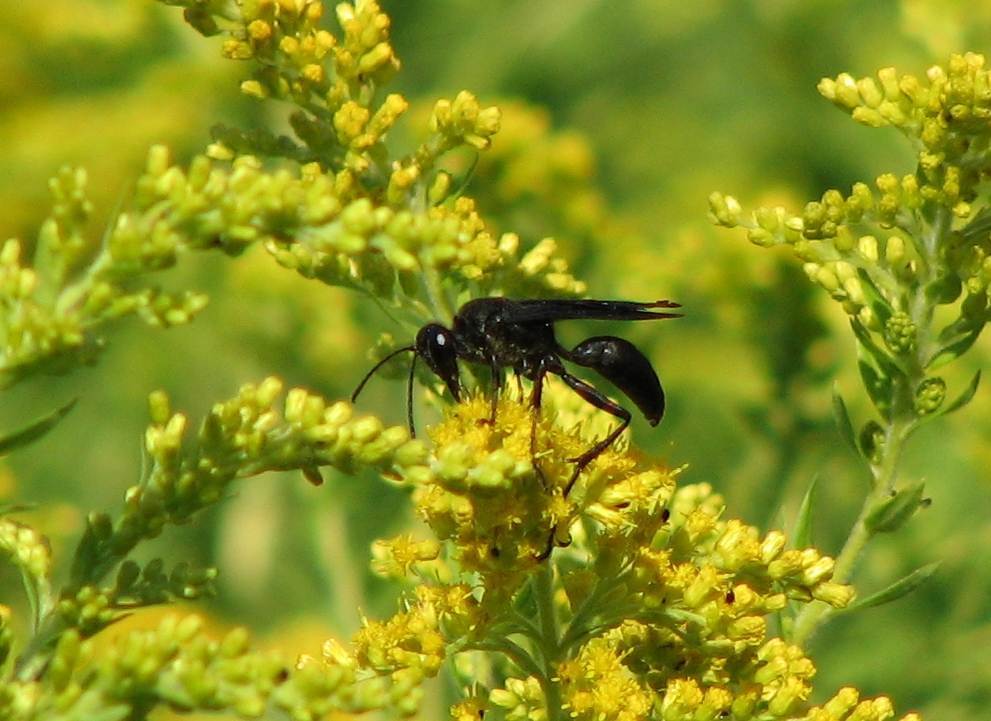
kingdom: Animalia
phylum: Arthropoda
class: Insecta
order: Hymenoptera
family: Sphecidae
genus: Sphex
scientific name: Sphex pensylvanicus
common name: Great black digger wasp
